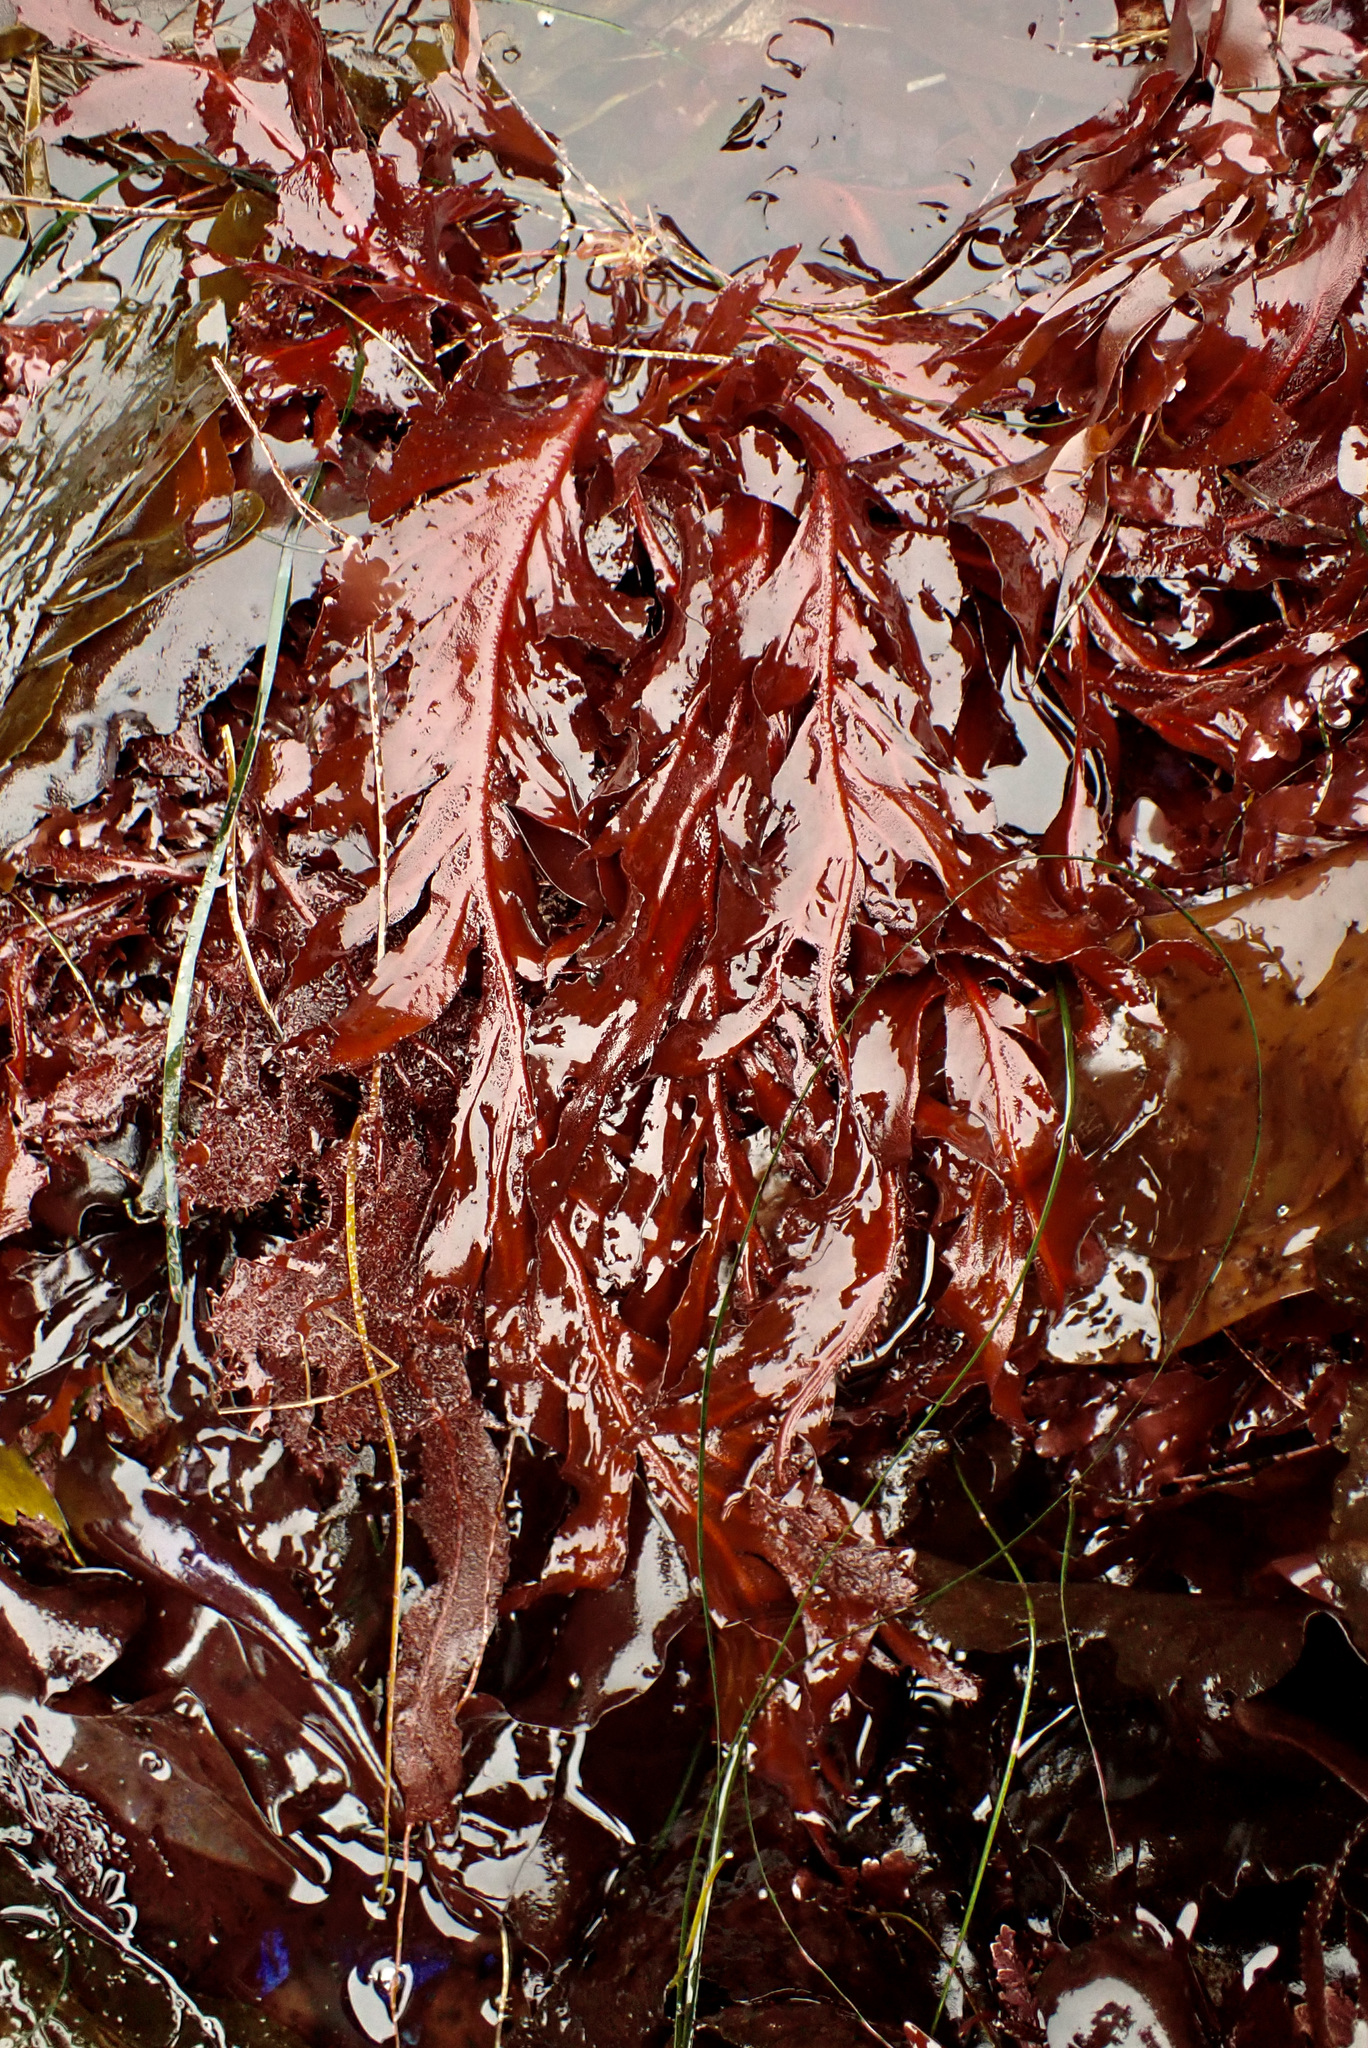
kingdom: Plantae
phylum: Rhodophyta
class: Florideophyceae
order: Gigartinales
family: Kallymeniaceae
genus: Erythrophyllum
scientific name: Erythrophyllum delesserioides
